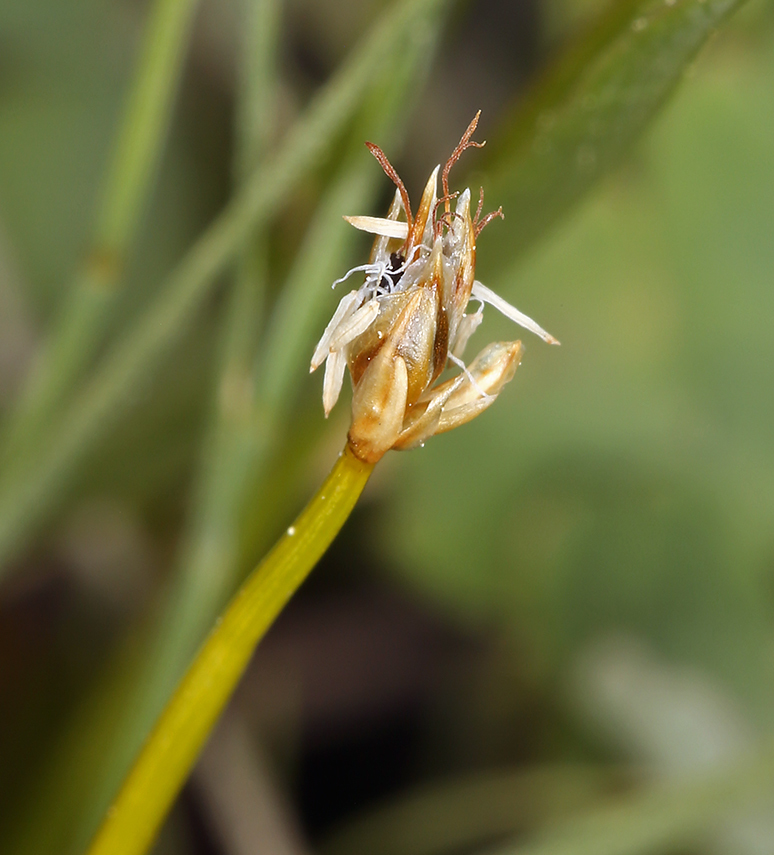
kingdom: Plantae
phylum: Tracheophyta
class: Liliopsida
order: Poales
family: Cyperaceae
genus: Trichophorum
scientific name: Trichophorum pumilum
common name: Rolland's bulrush
